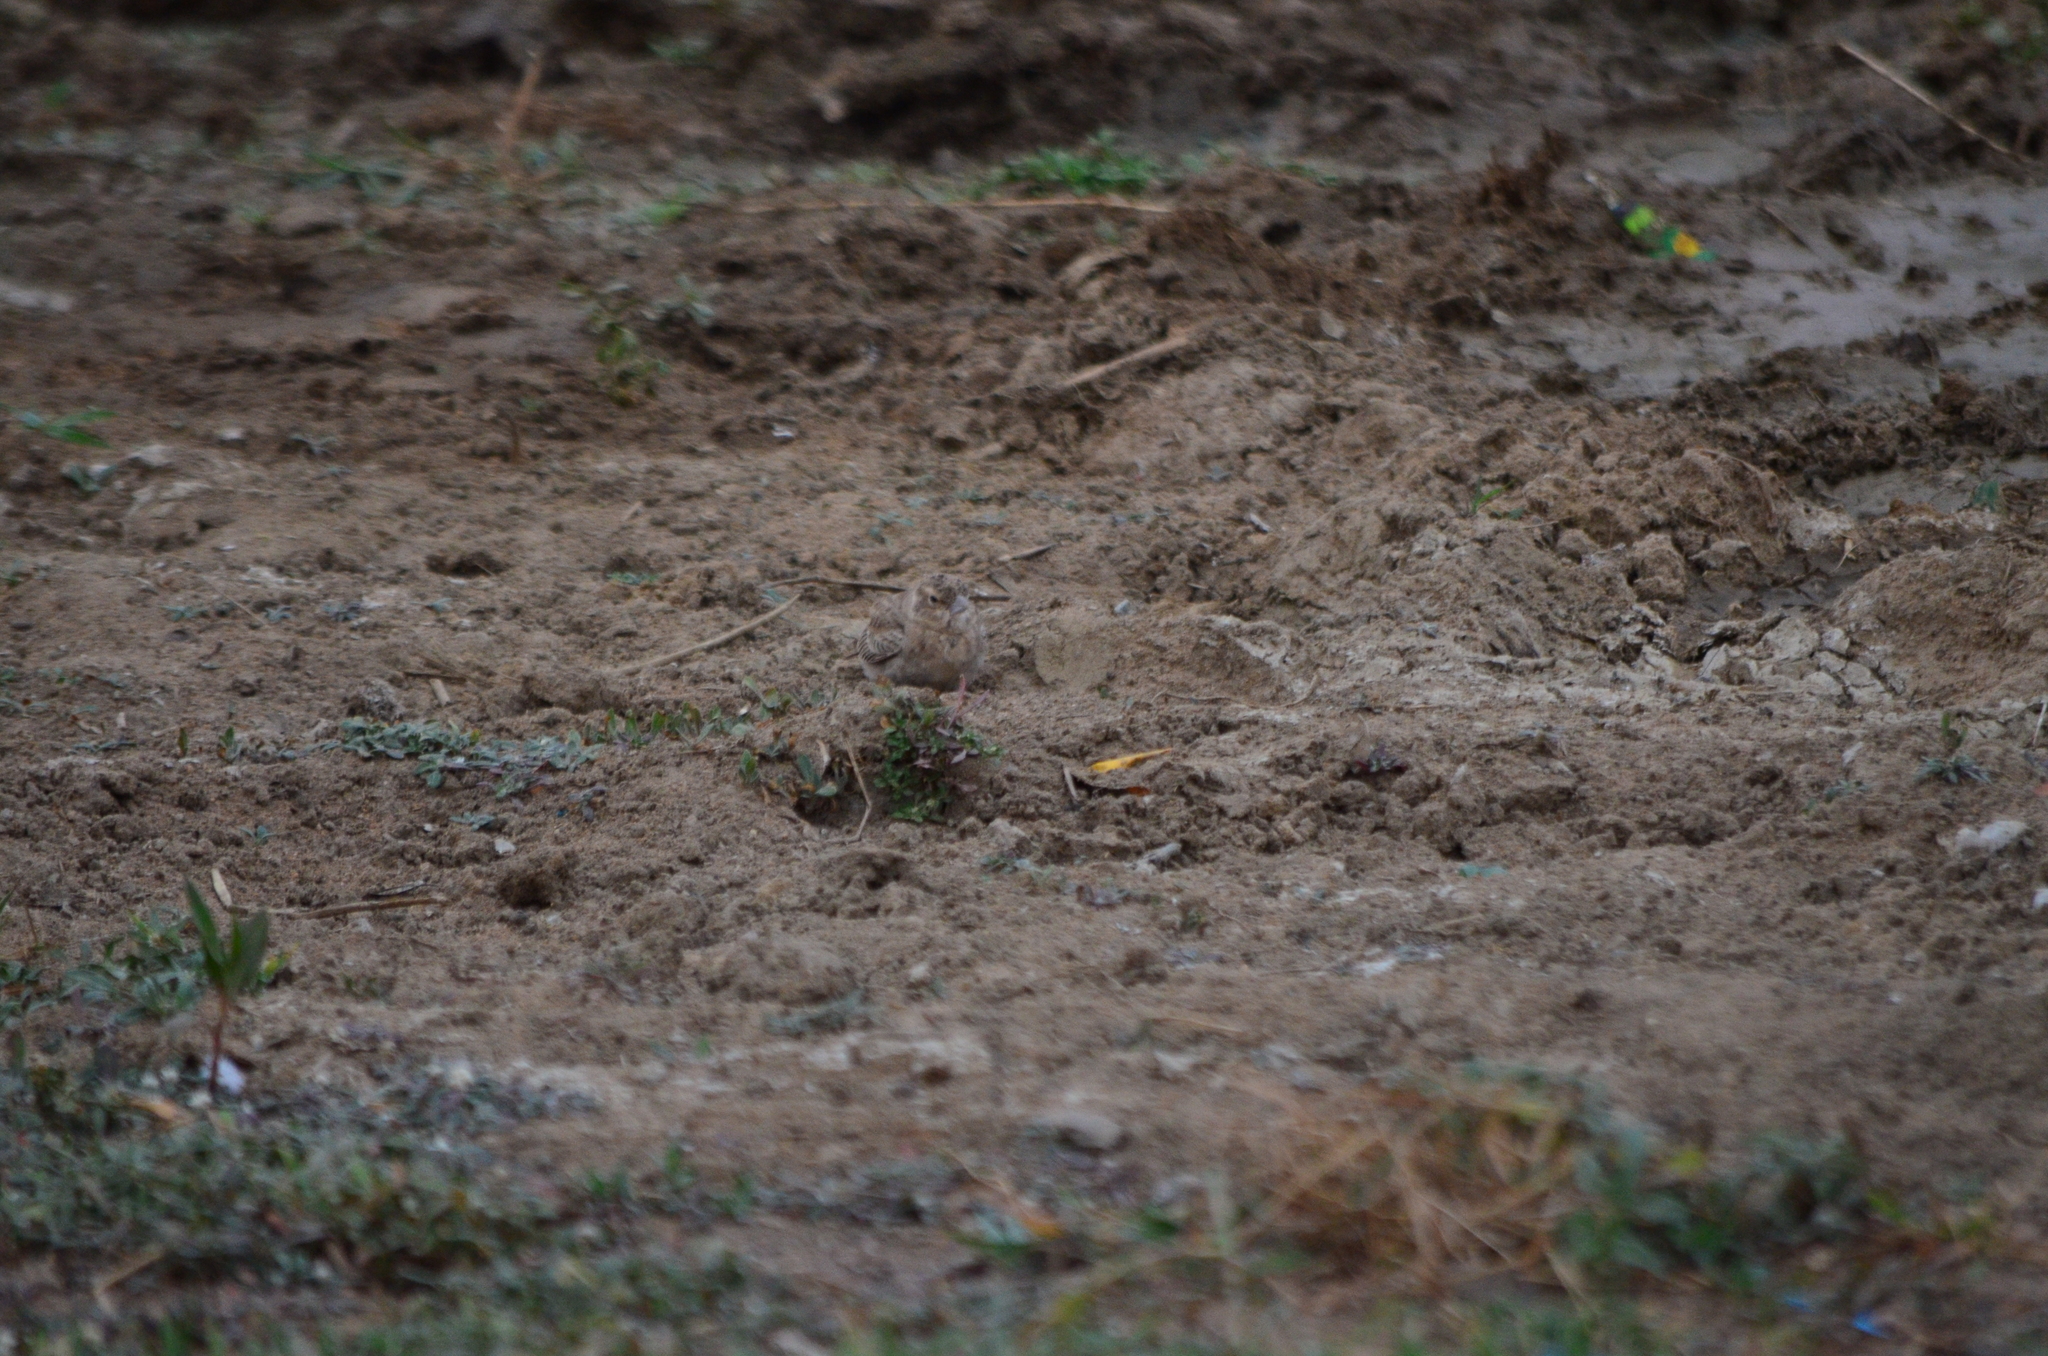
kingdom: Animalia
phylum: Chordata
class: Aves
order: Passeriformes
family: Alaudidae
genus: Eremopterix
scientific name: Eremopterix griseus
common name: Ashy-crowned sparrow-lark
